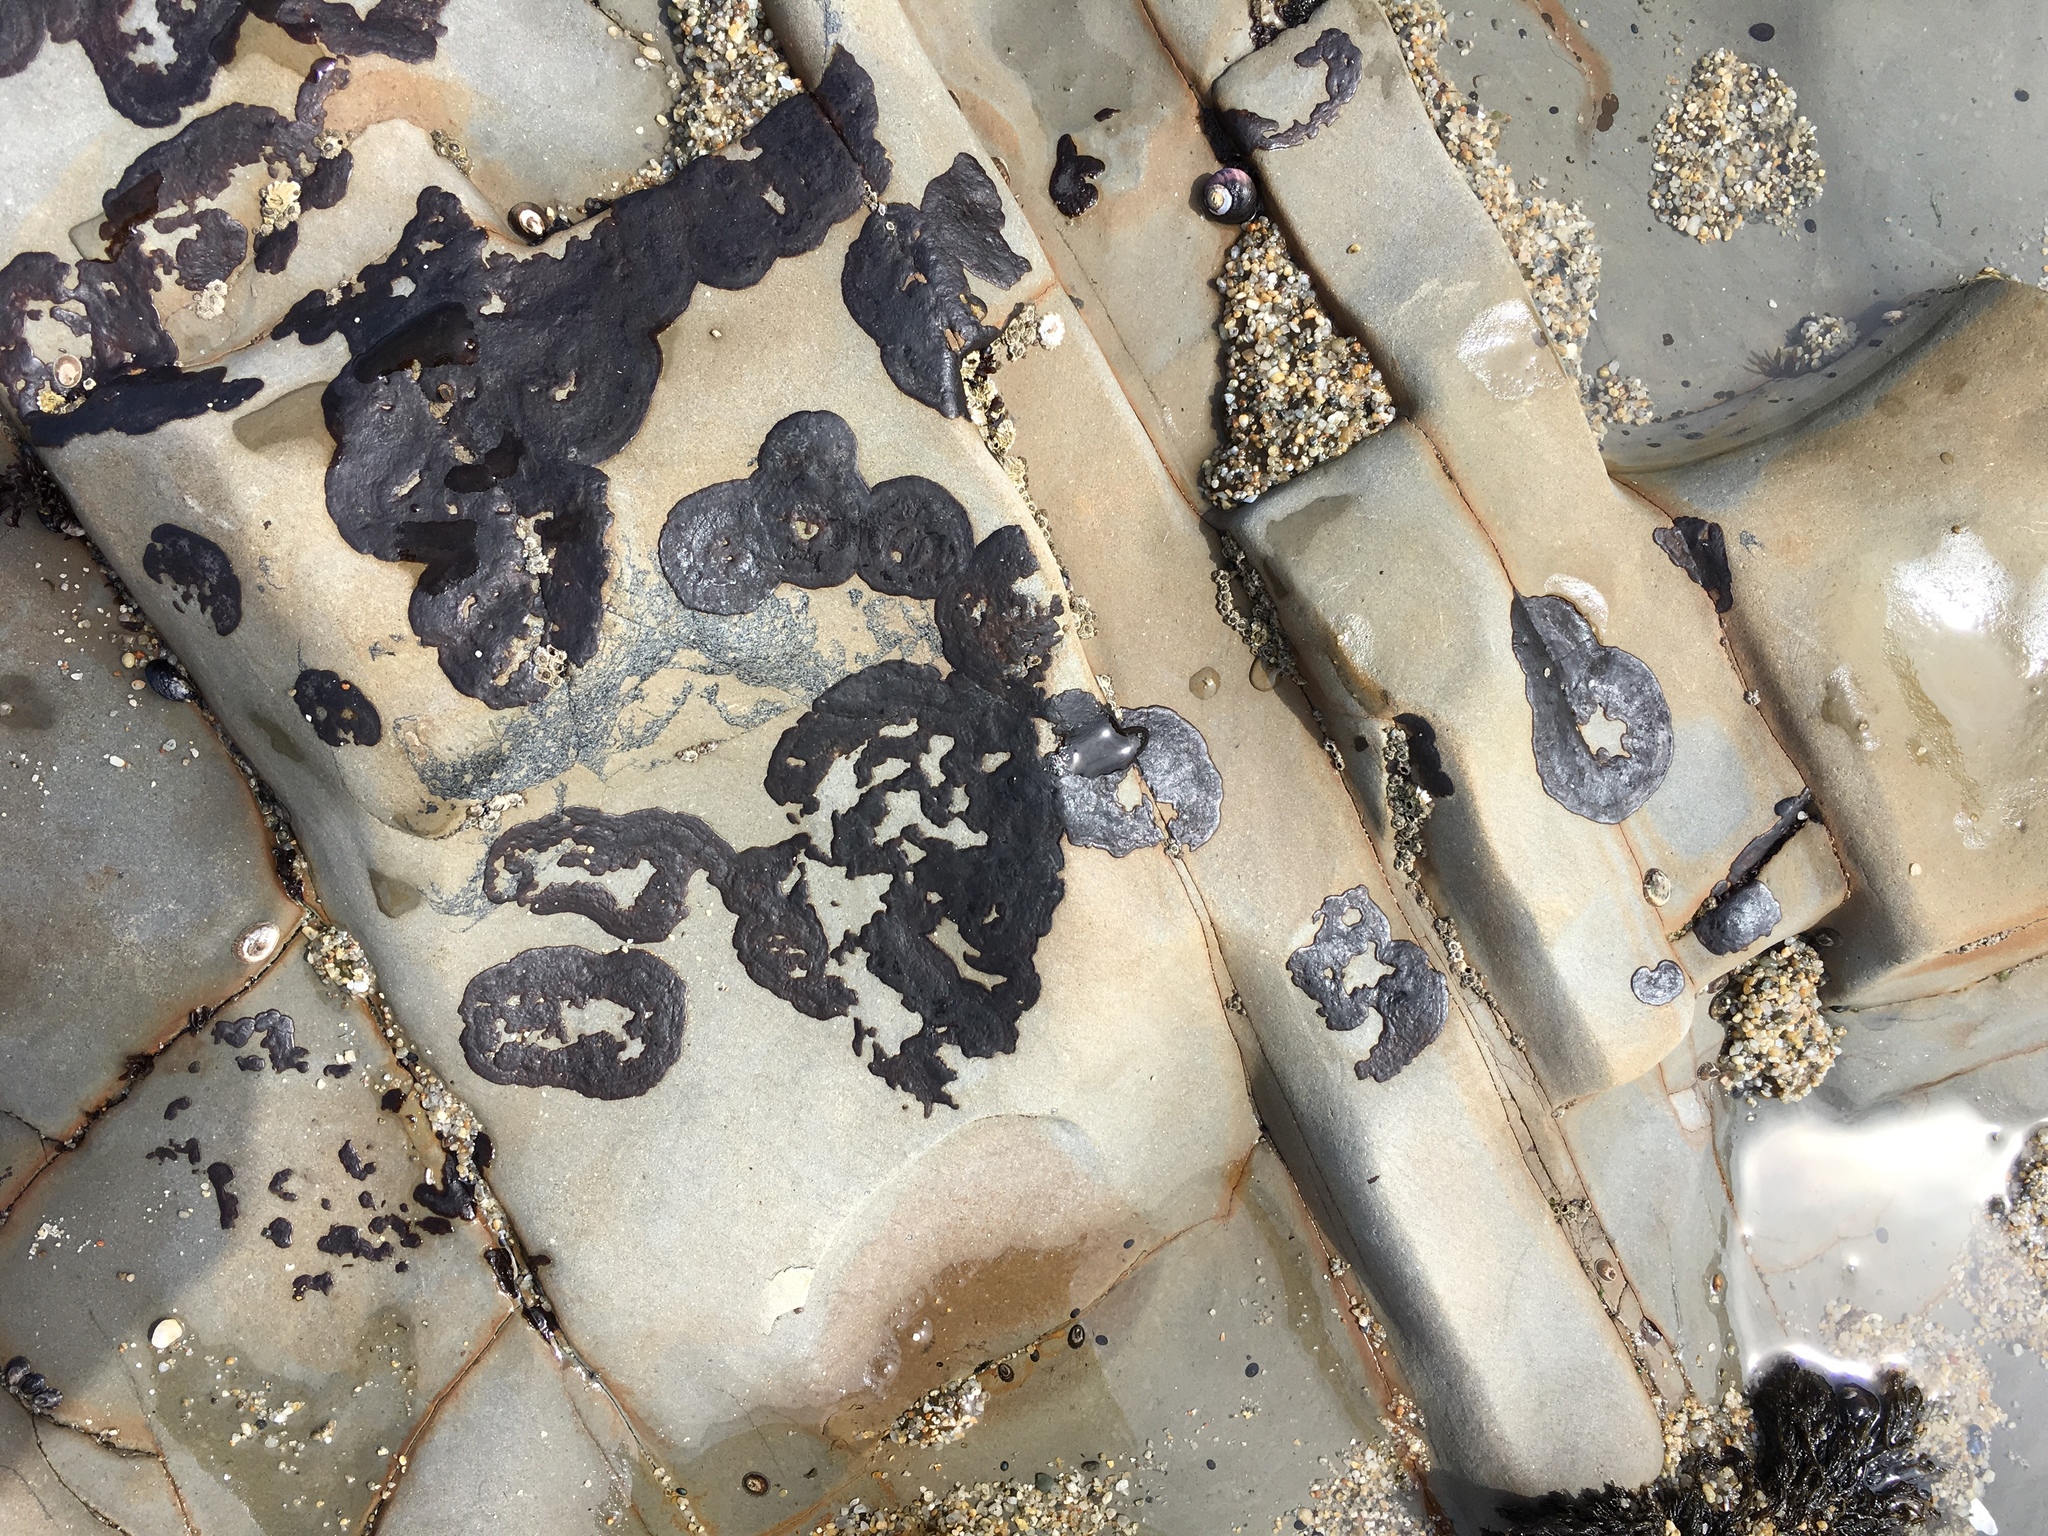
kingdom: Plantae
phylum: Rhodophyta
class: Florideophyceae
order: Gigartinales
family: Phyllophoraceae
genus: Mastocarpus
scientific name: Mastocarpus papillatus
